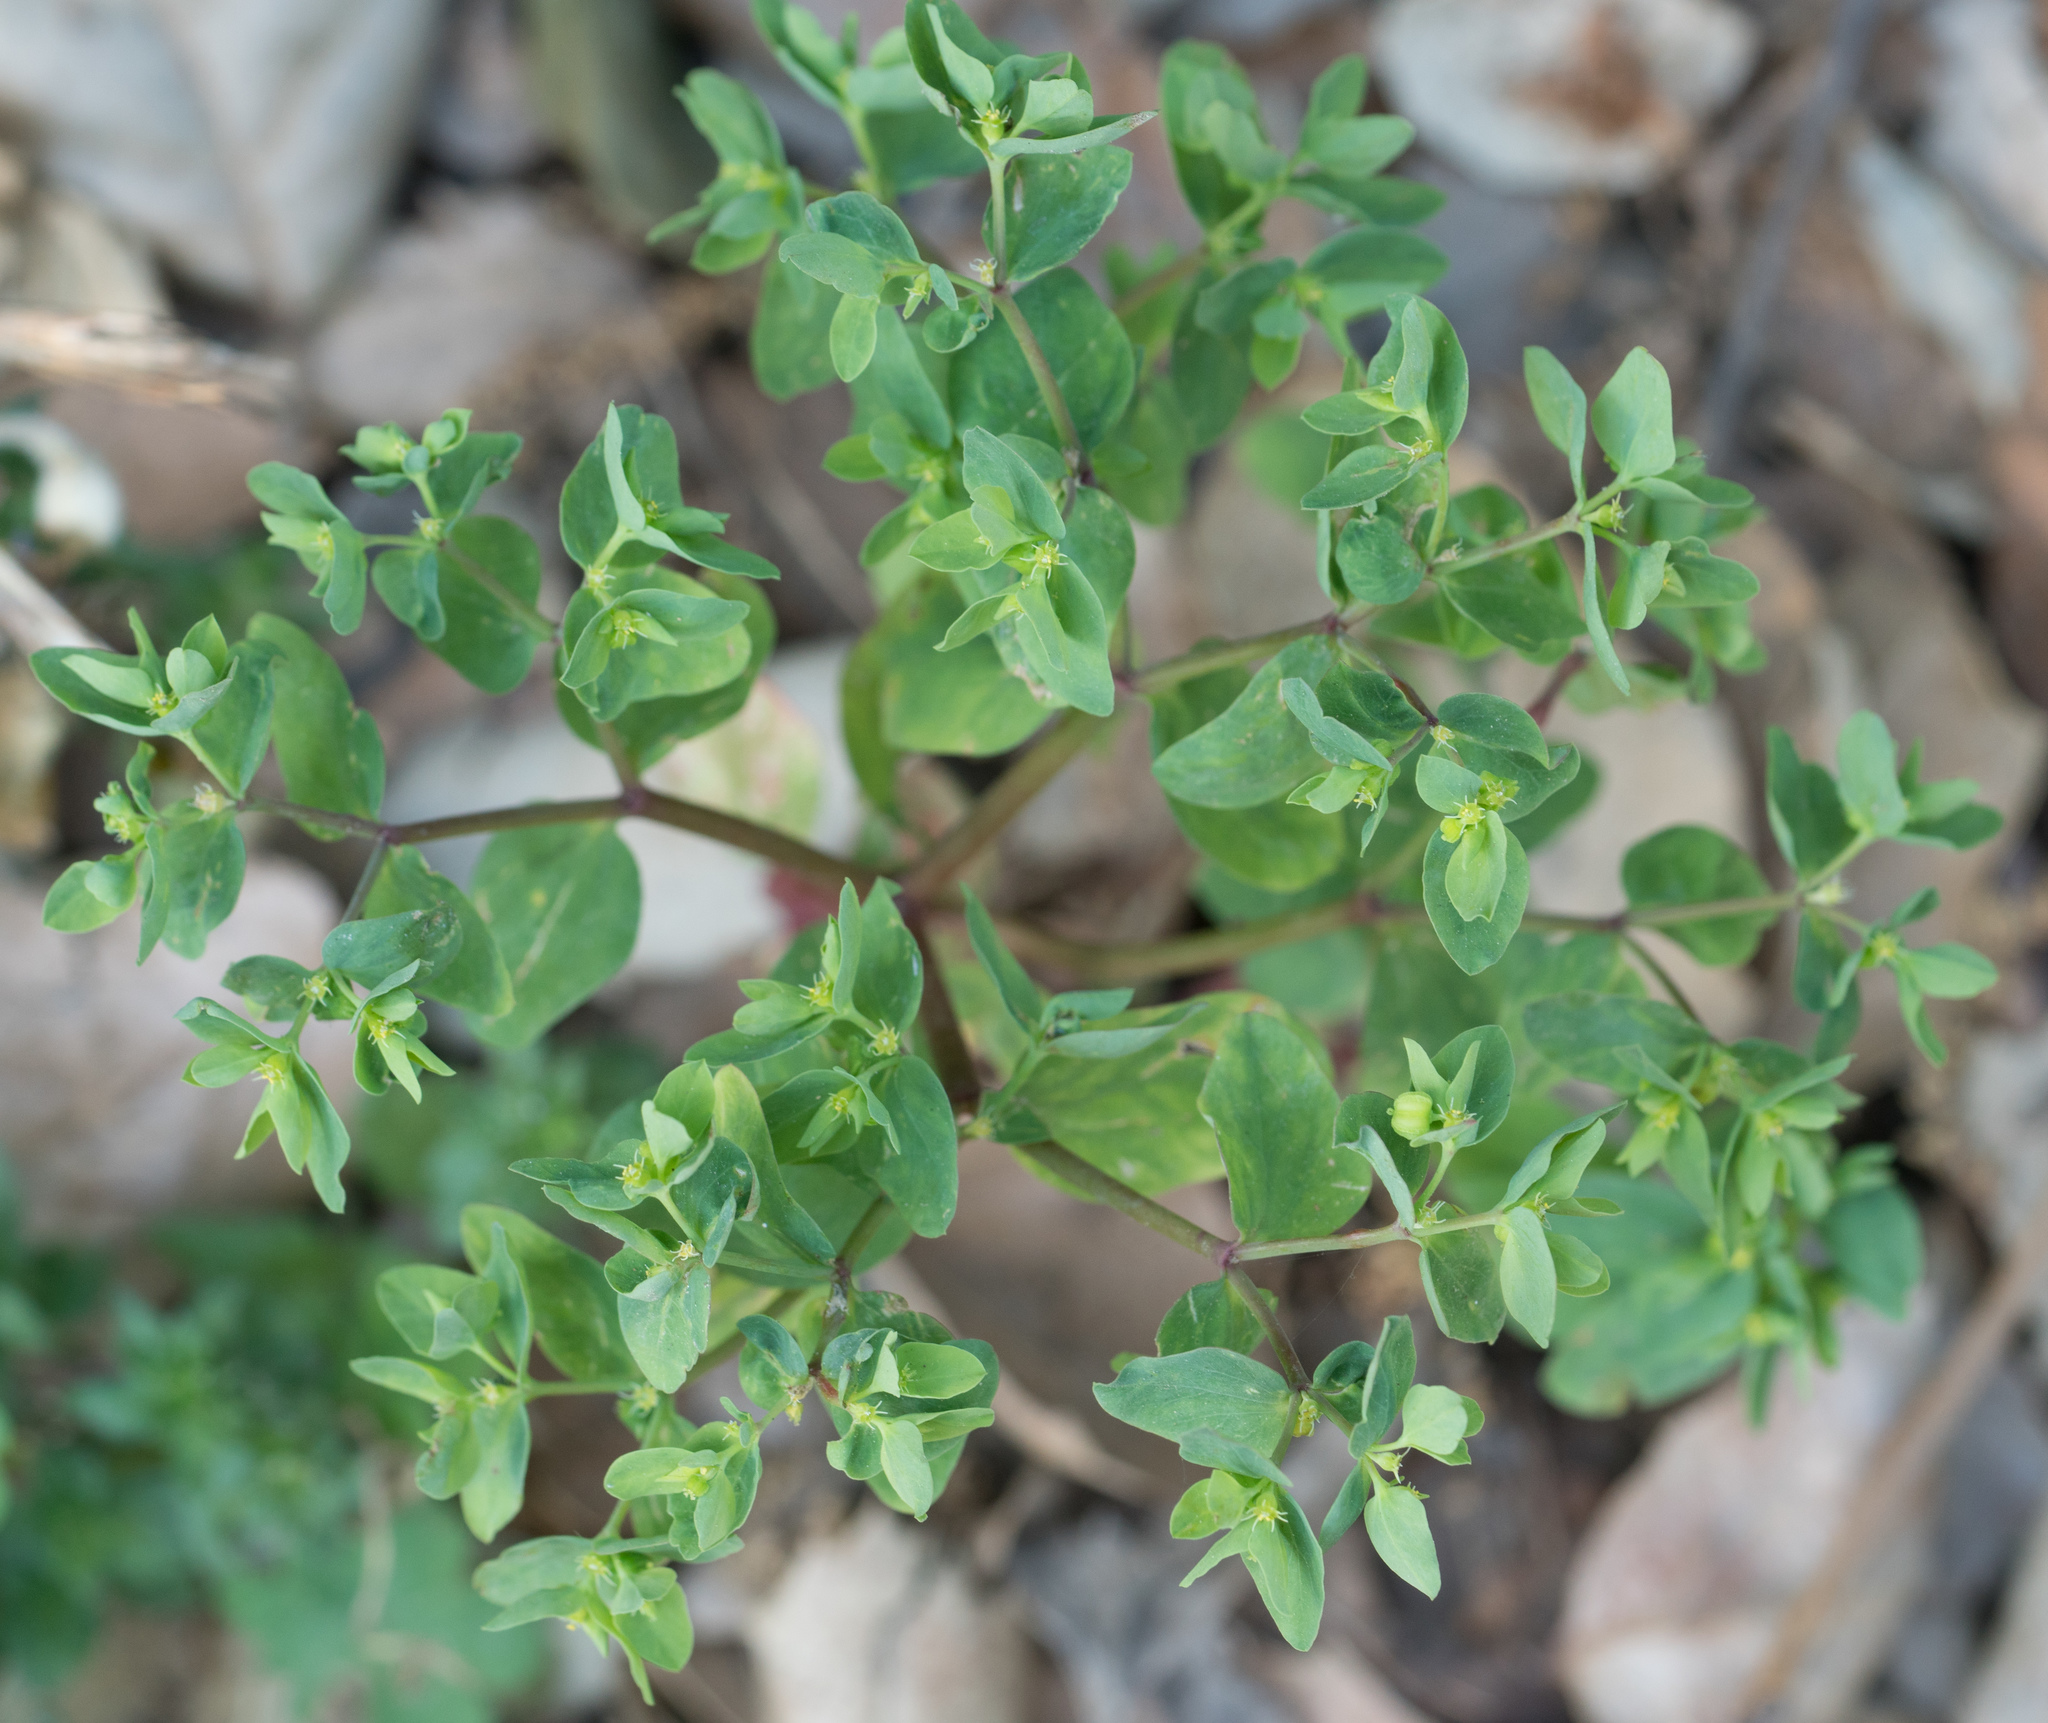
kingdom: Plantae
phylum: Tracheophyta
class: Magnoliopsida
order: Malpighiales
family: Euphorbiaceae
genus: Euphorbia
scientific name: Euphorbia peplus
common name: Petty spurge
